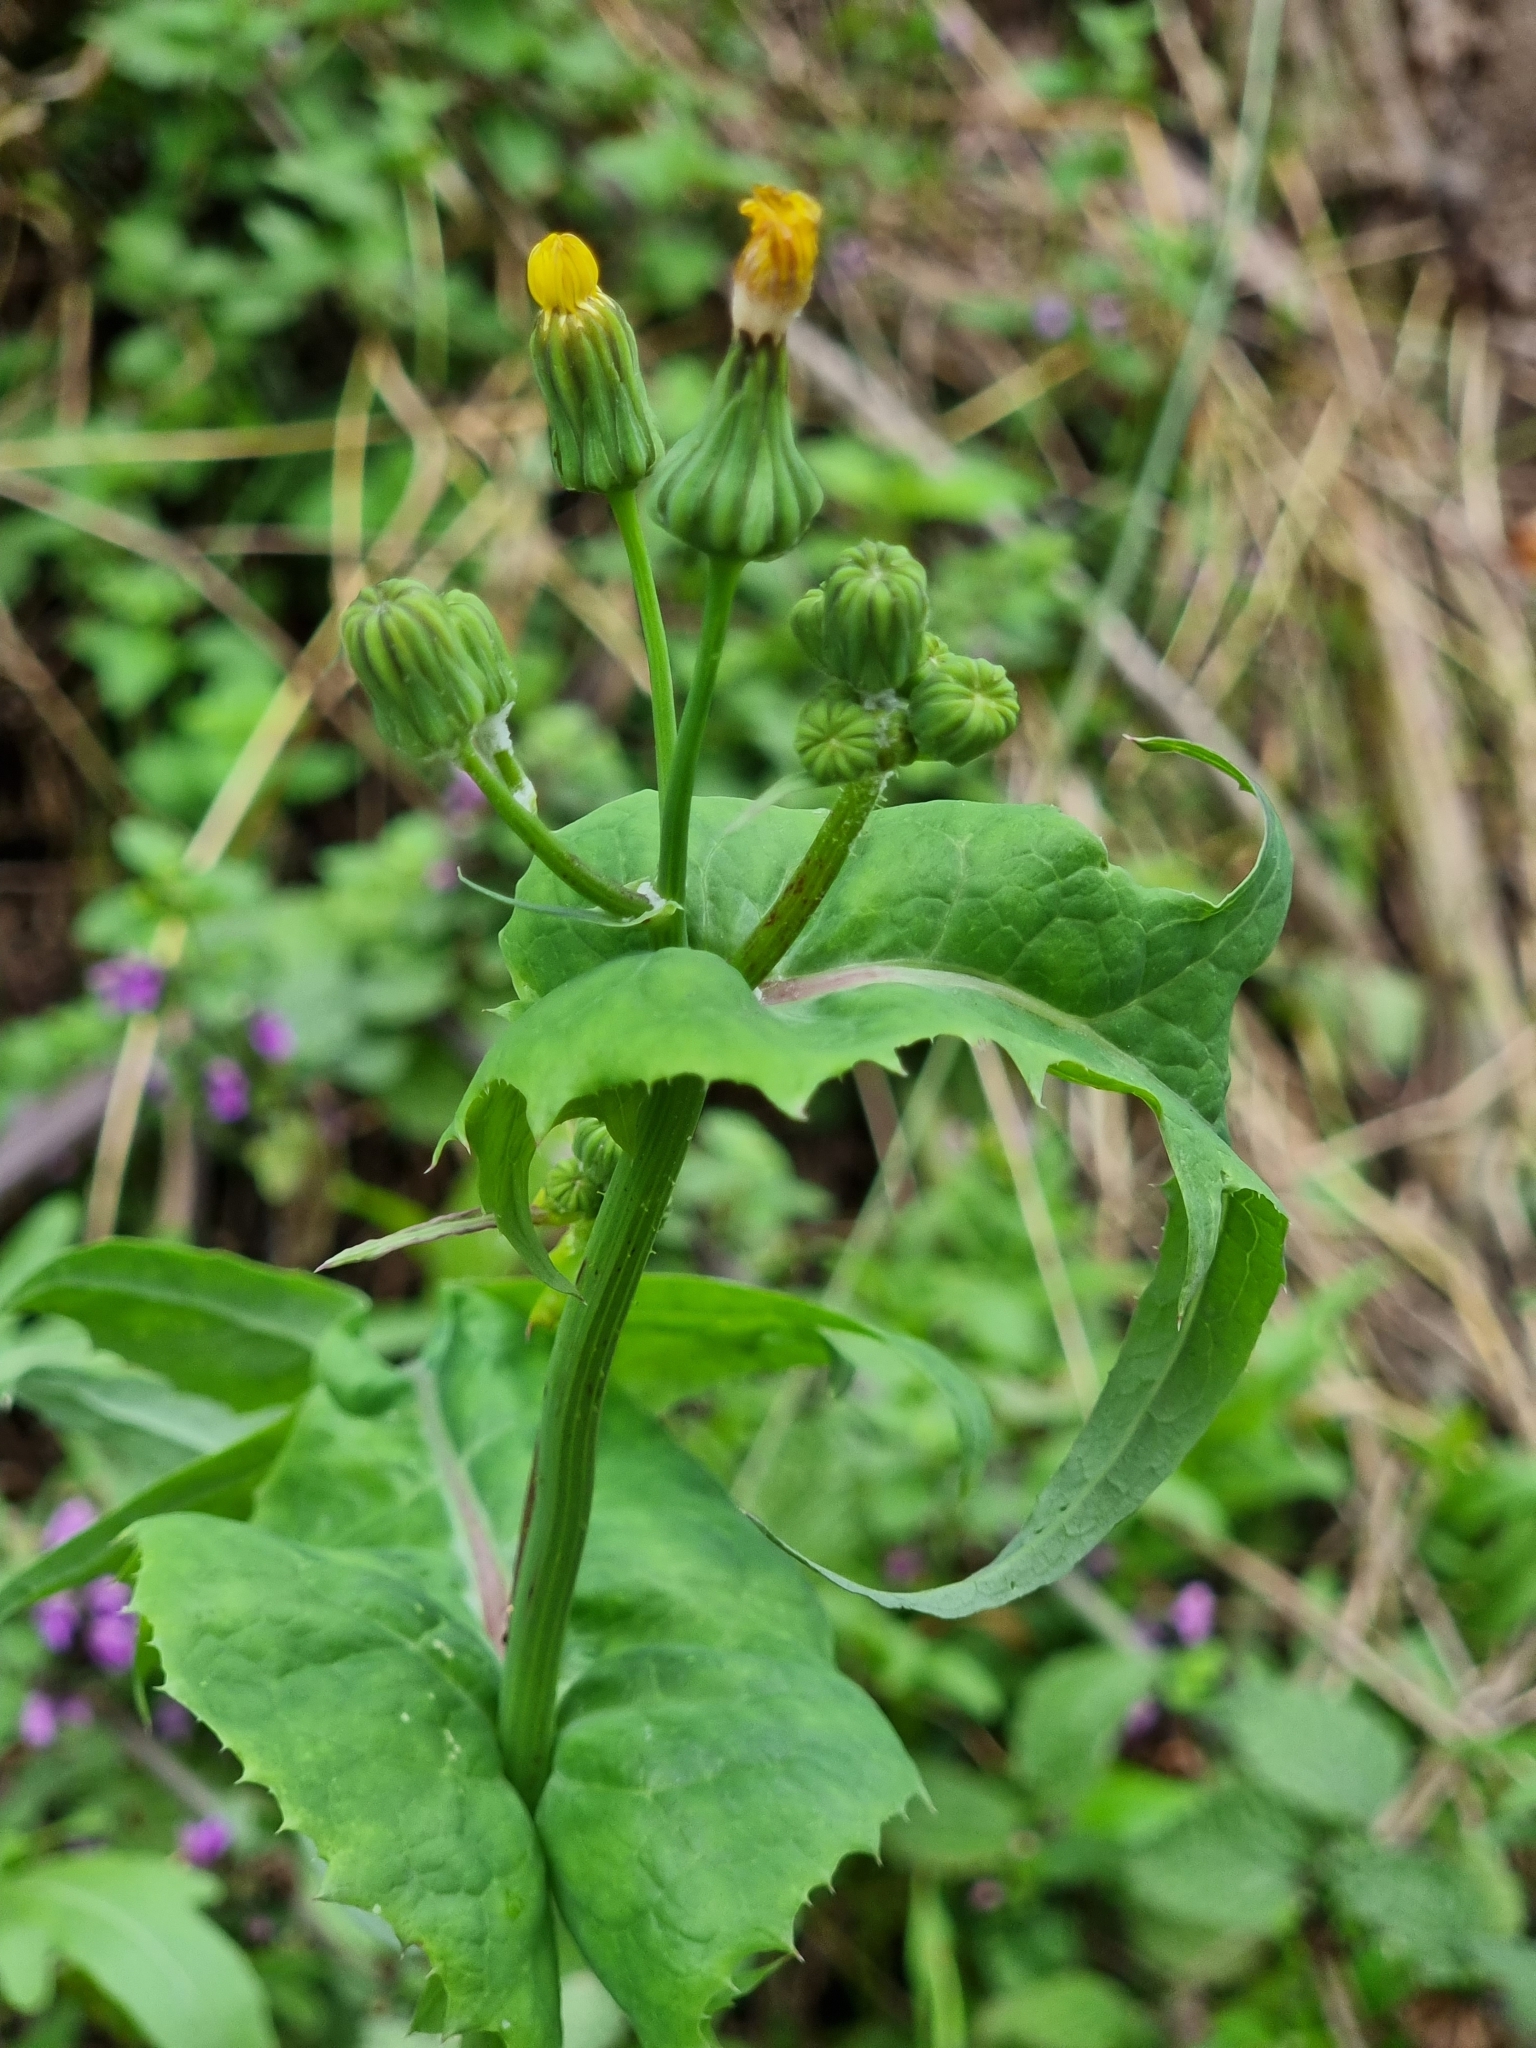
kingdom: Plantae
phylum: Tracheophyta
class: Magnoliopsida
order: Asterales
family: Asteraceae
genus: Sonchus
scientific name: Sonchus oleraceus
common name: Common sowthistle
